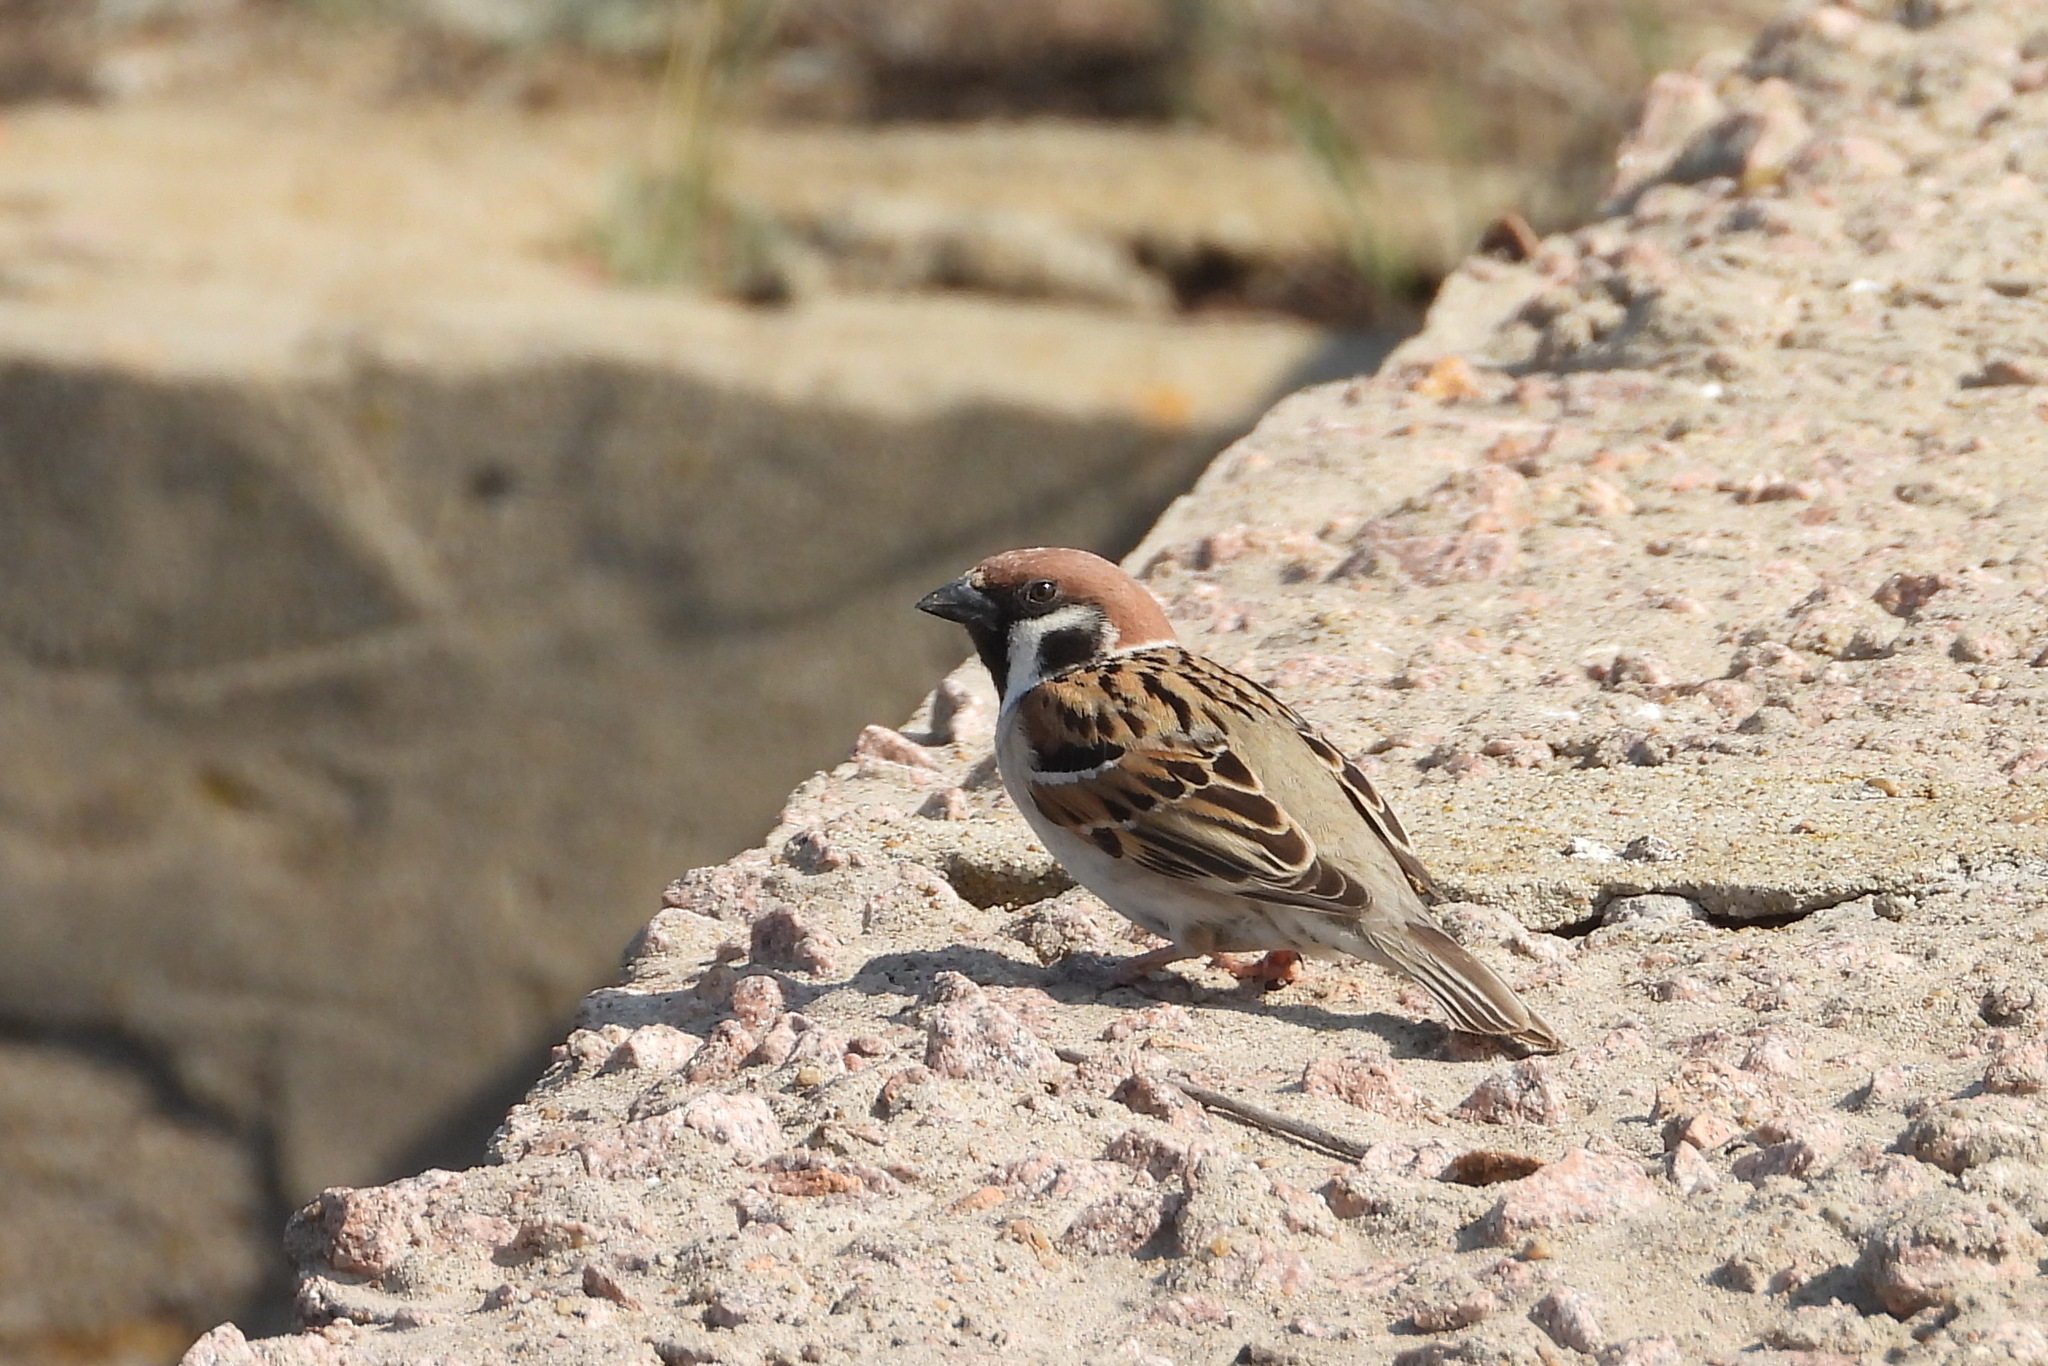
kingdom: Animalia
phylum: Chordata
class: Aves
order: Passeriformes
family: Passeridae
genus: Passer
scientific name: Passer montanus
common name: Eurasian tree sparrow
